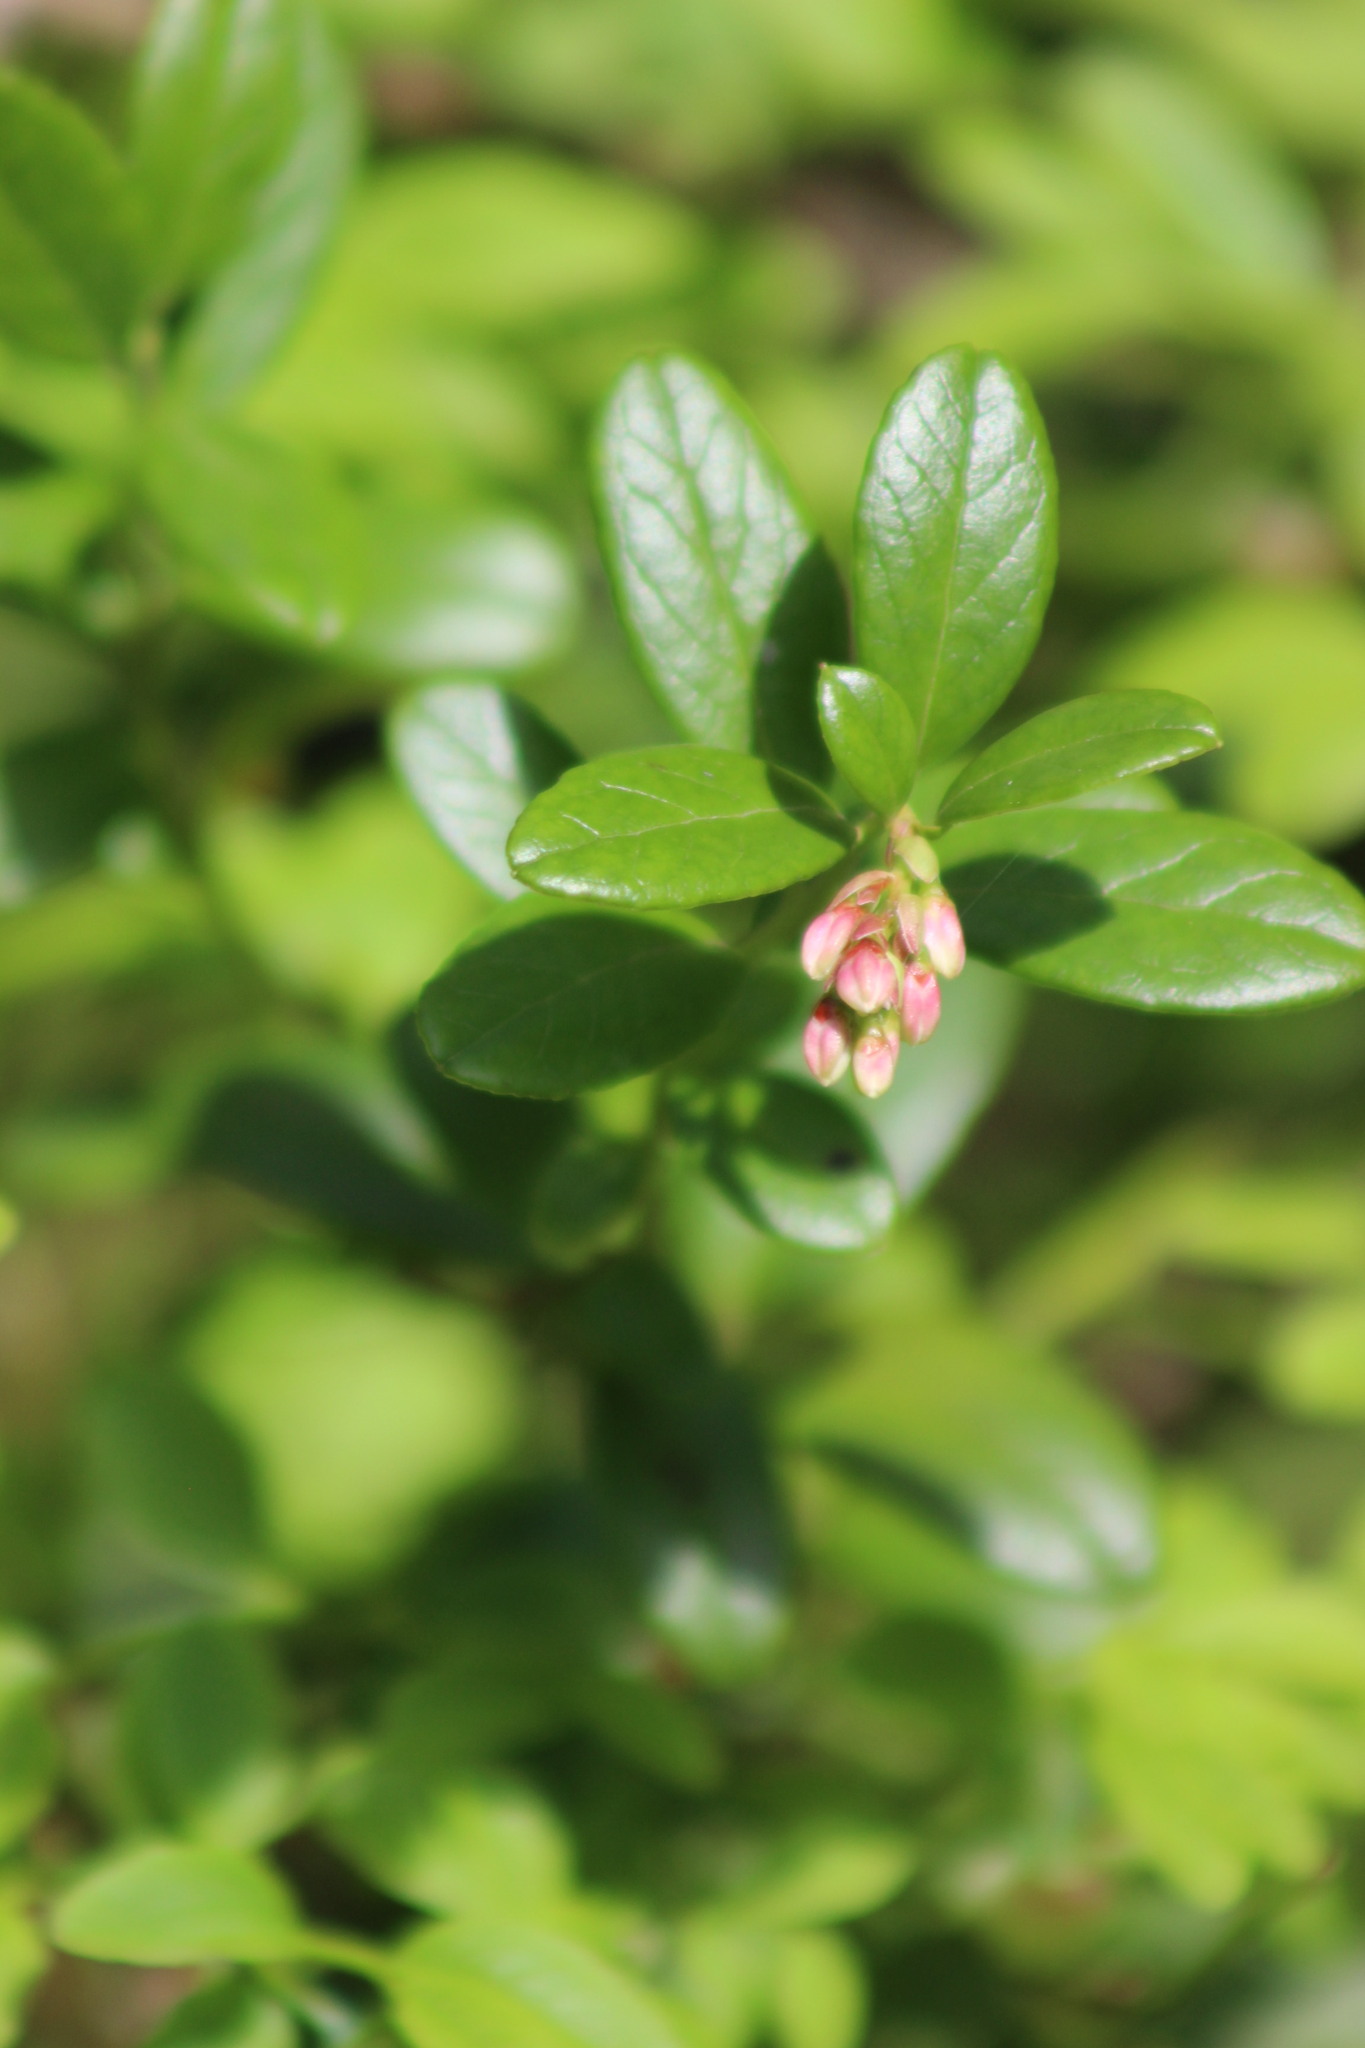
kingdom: Plantae
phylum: Tracheophyta
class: Magnoliopsida
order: Ericales
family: Ericaceae
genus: Vaccinium
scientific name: Vaccinium vitis-idaea
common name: Cowberry
